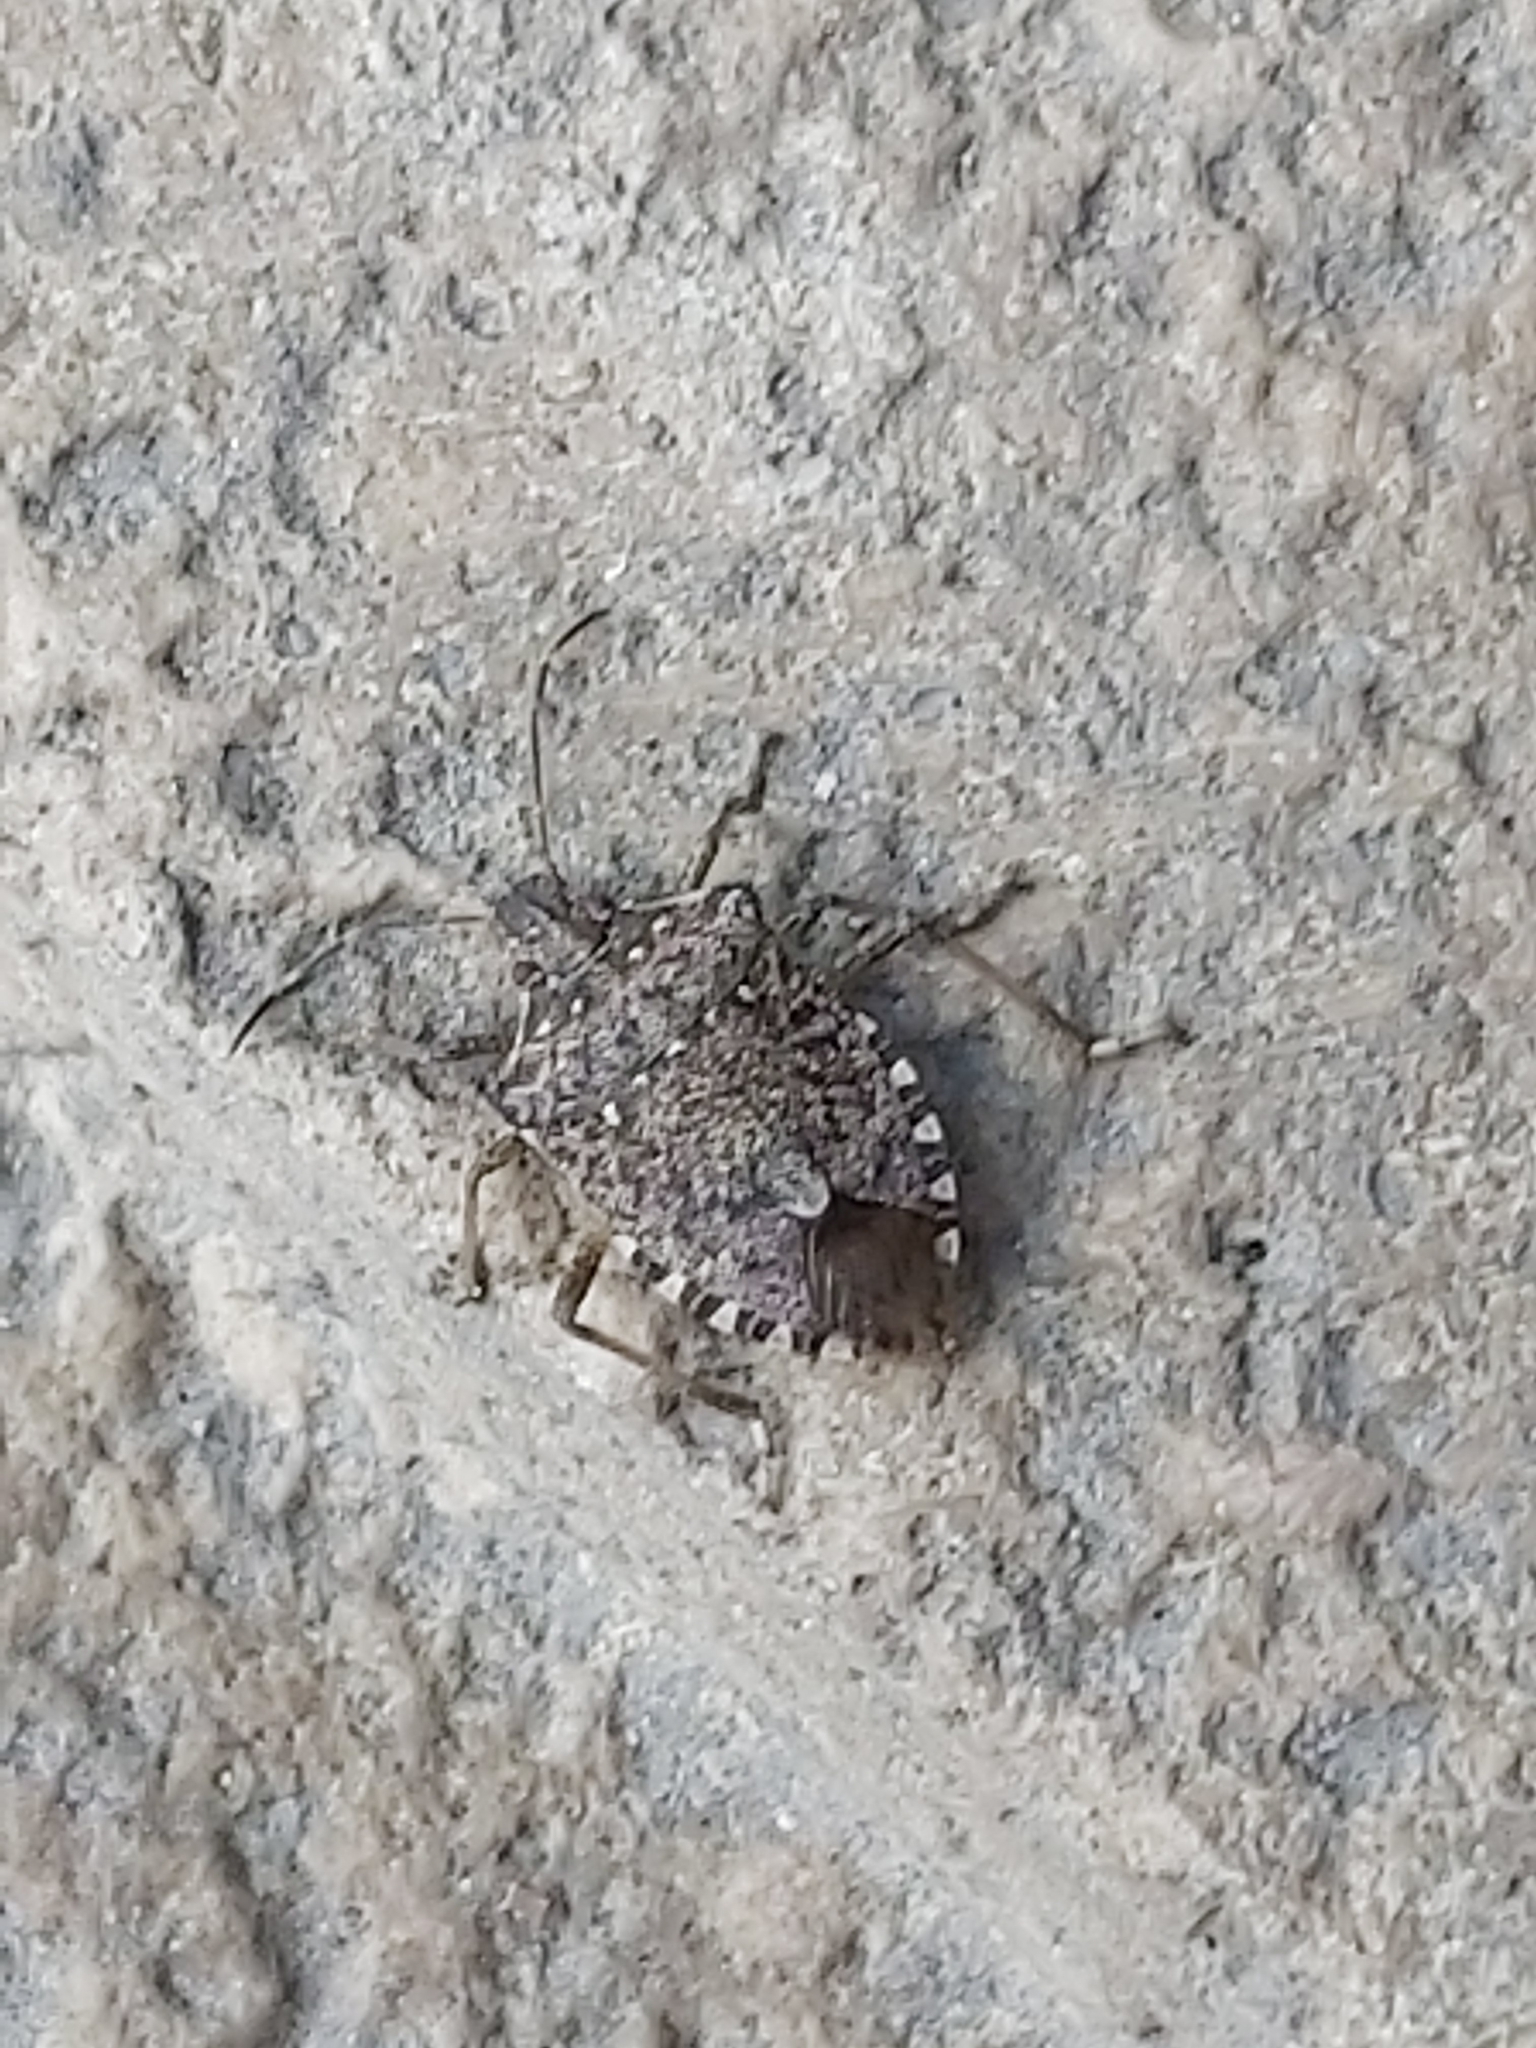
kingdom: Animalia
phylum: Arthropoda
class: Insecta
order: Hemiptera
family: Pentatomidae
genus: Halyomorpha
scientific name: Halyomorpha halys
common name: Brown marmorated stink bug
